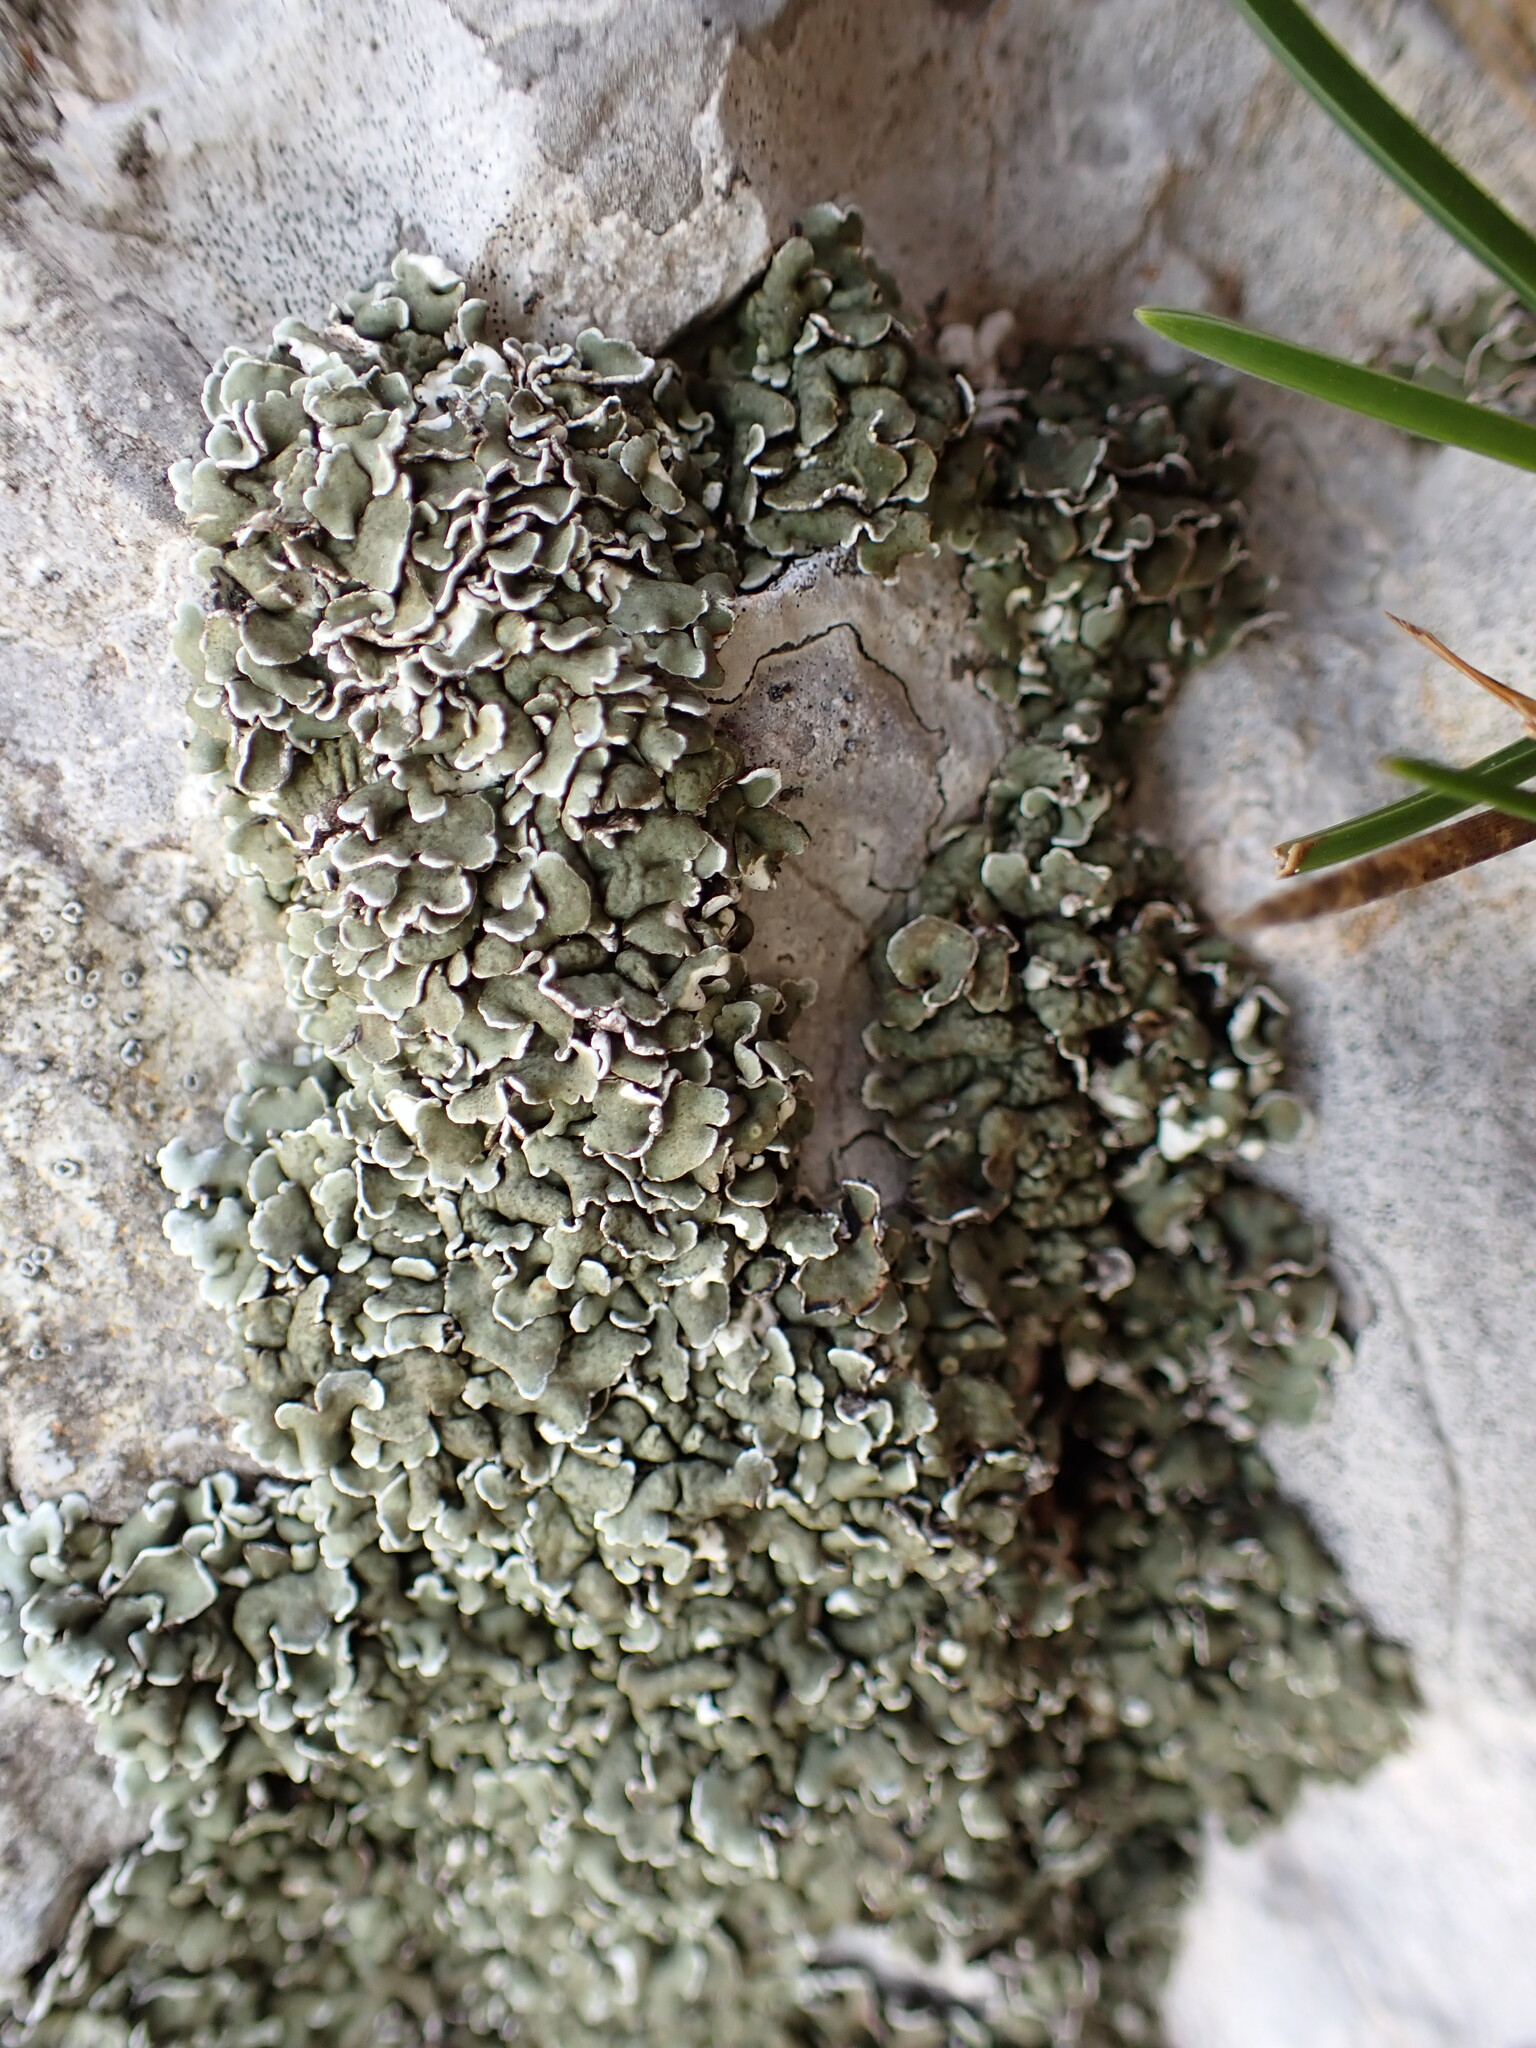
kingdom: Fungi
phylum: Ascomycota
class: Lecanoromycetes
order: Lecanorales
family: Stereocaulaceae
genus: Squamarina
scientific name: Squamarina concrescens
